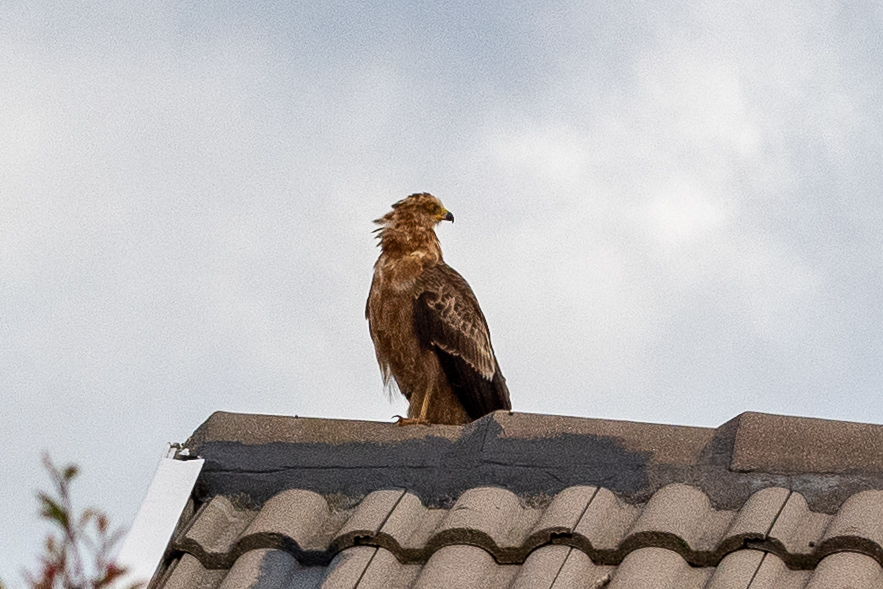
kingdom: Animalia
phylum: Chordata
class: Aves
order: Accipitriformes
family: Accipitridae
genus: Polyboroides
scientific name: Polyboroides typus
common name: African harrier-hawk
